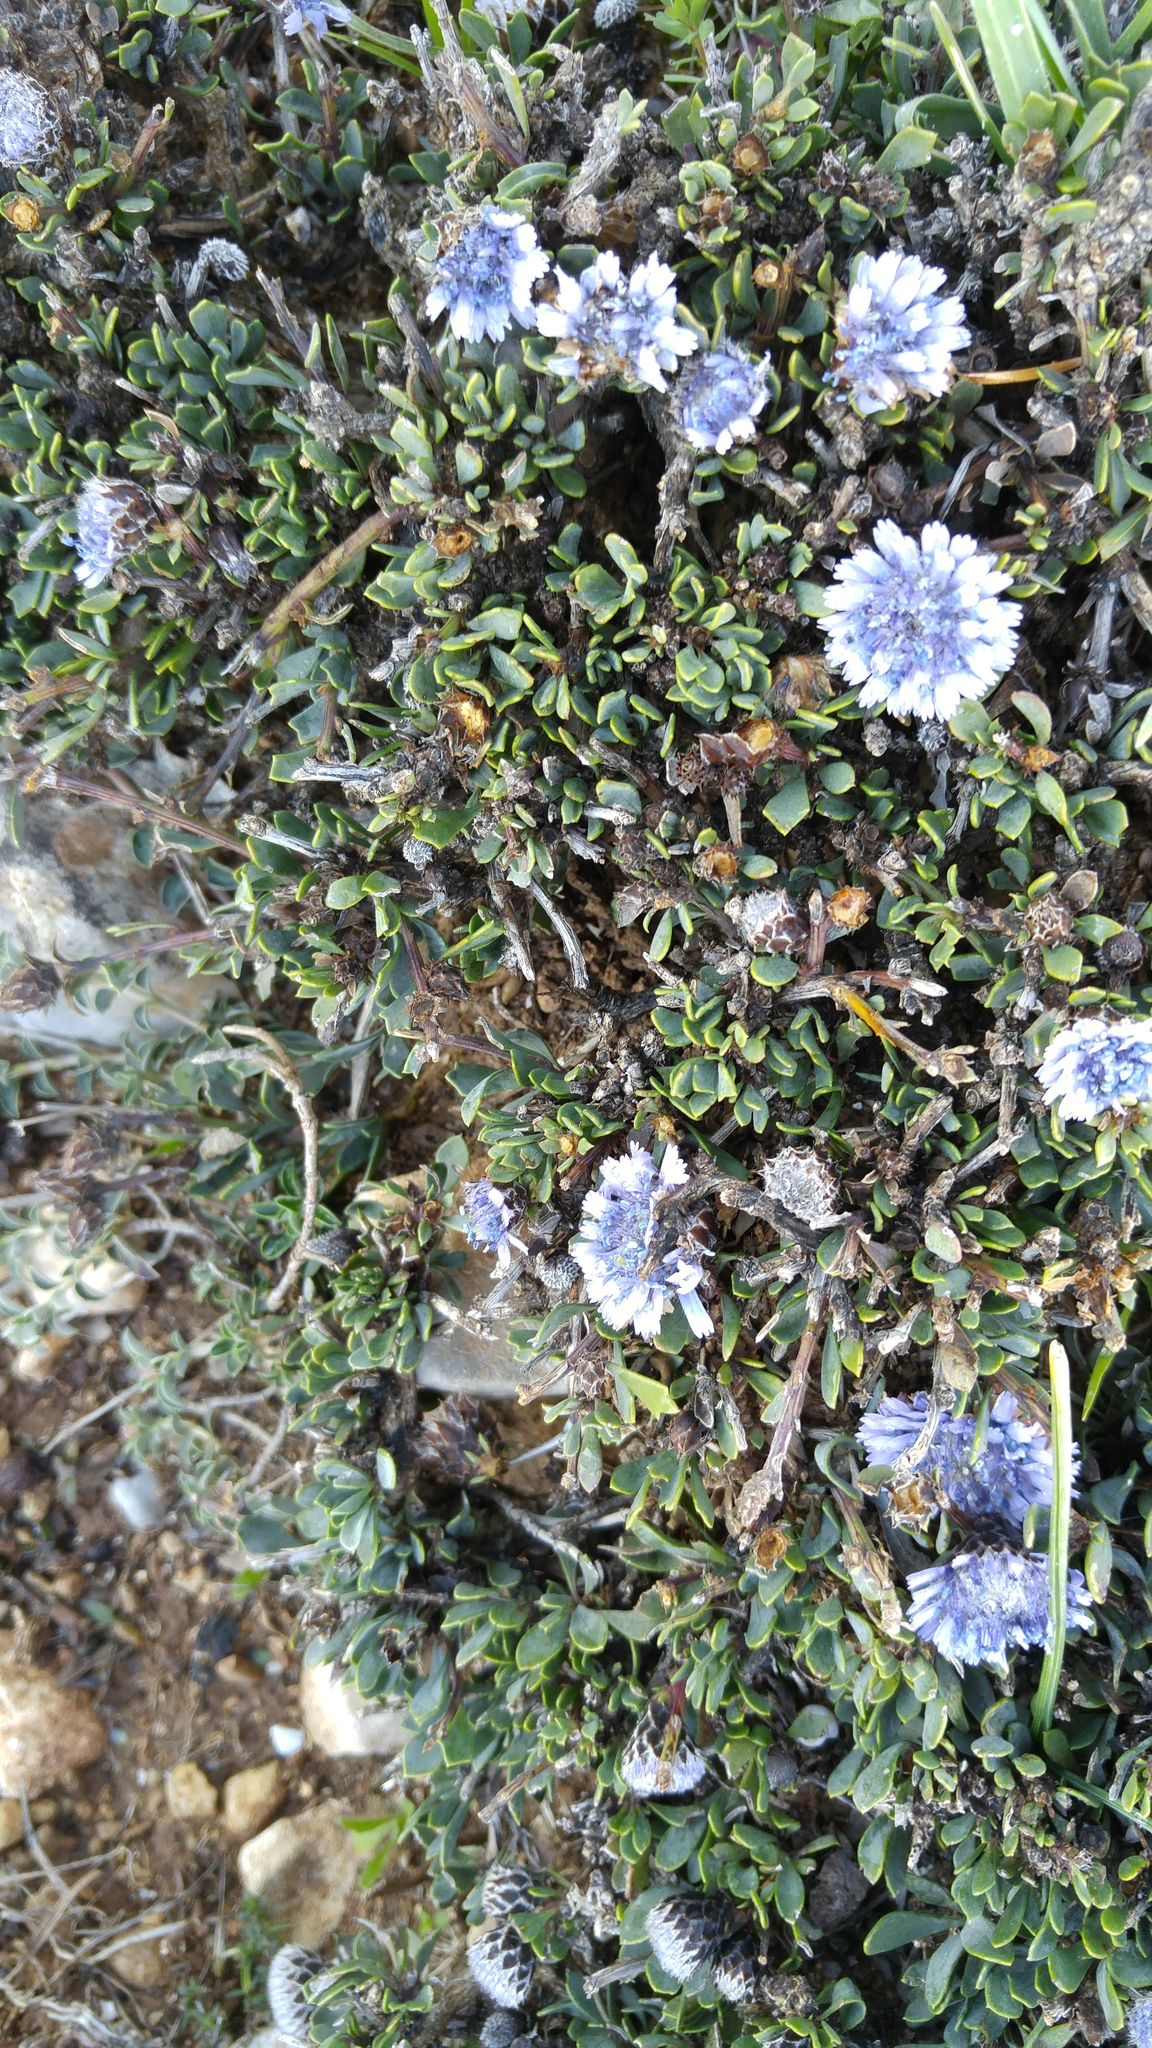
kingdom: Plantae
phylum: Tracheophyta
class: Magnoliopsida
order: Lamiales
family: Plantaginaceae
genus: Globularia
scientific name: Globularia alypum
